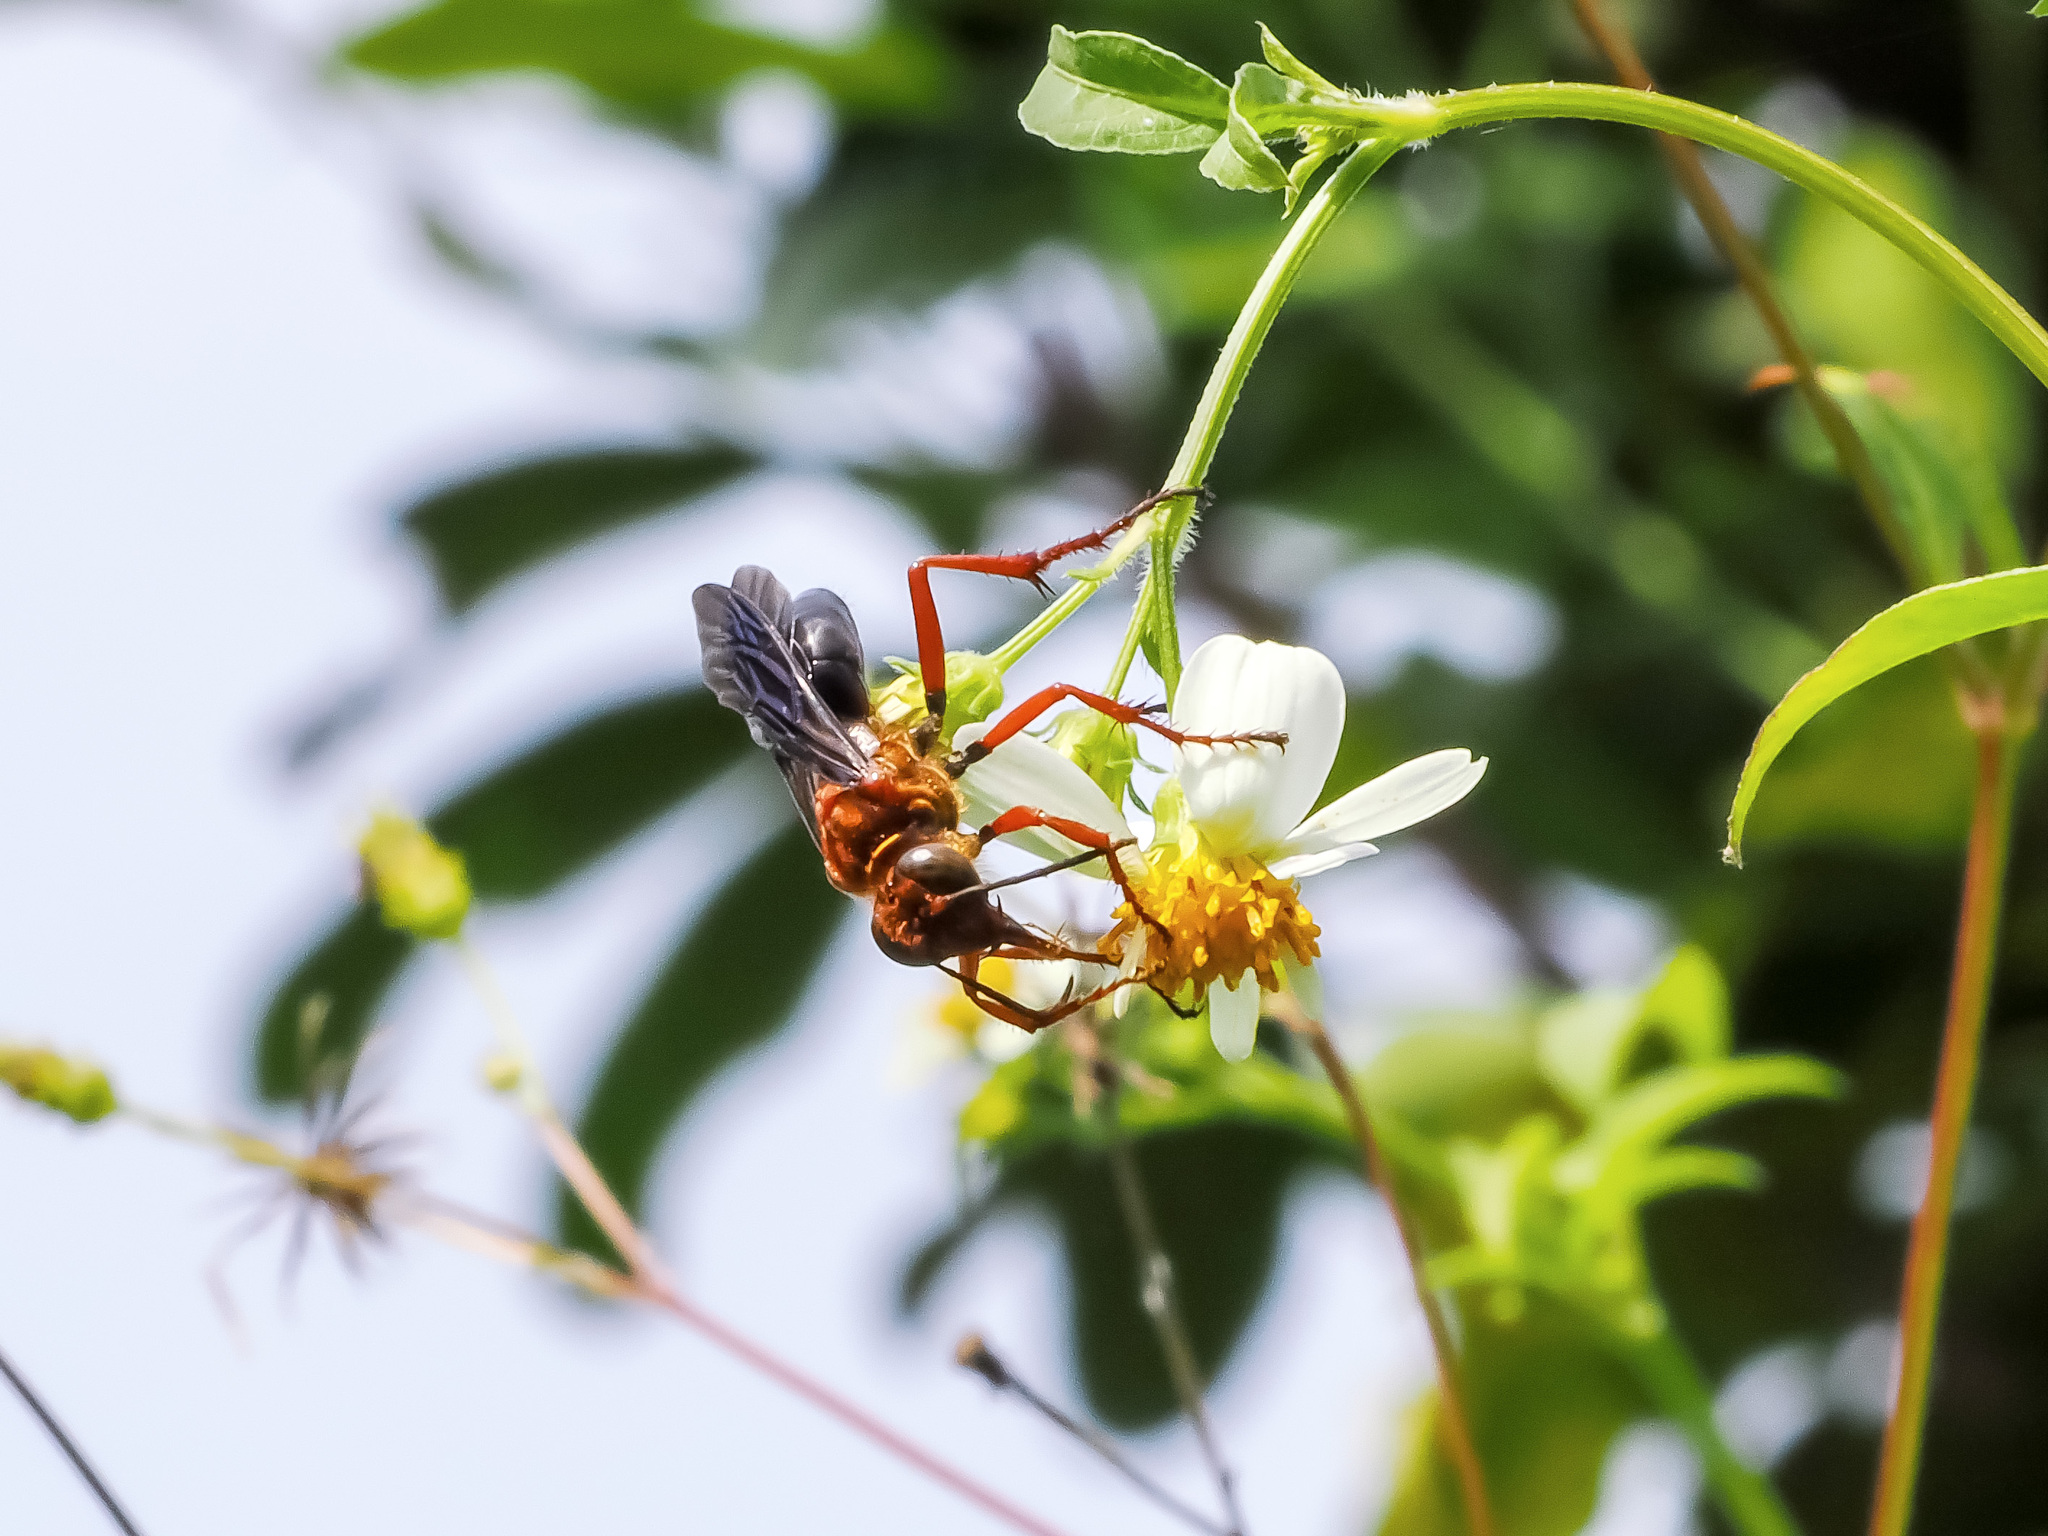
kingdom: Animalia
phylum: Arthropoda
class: Insecta
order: Hymenoptera
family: Sphecidae
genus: Sphex
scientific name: Sphex sericeus
